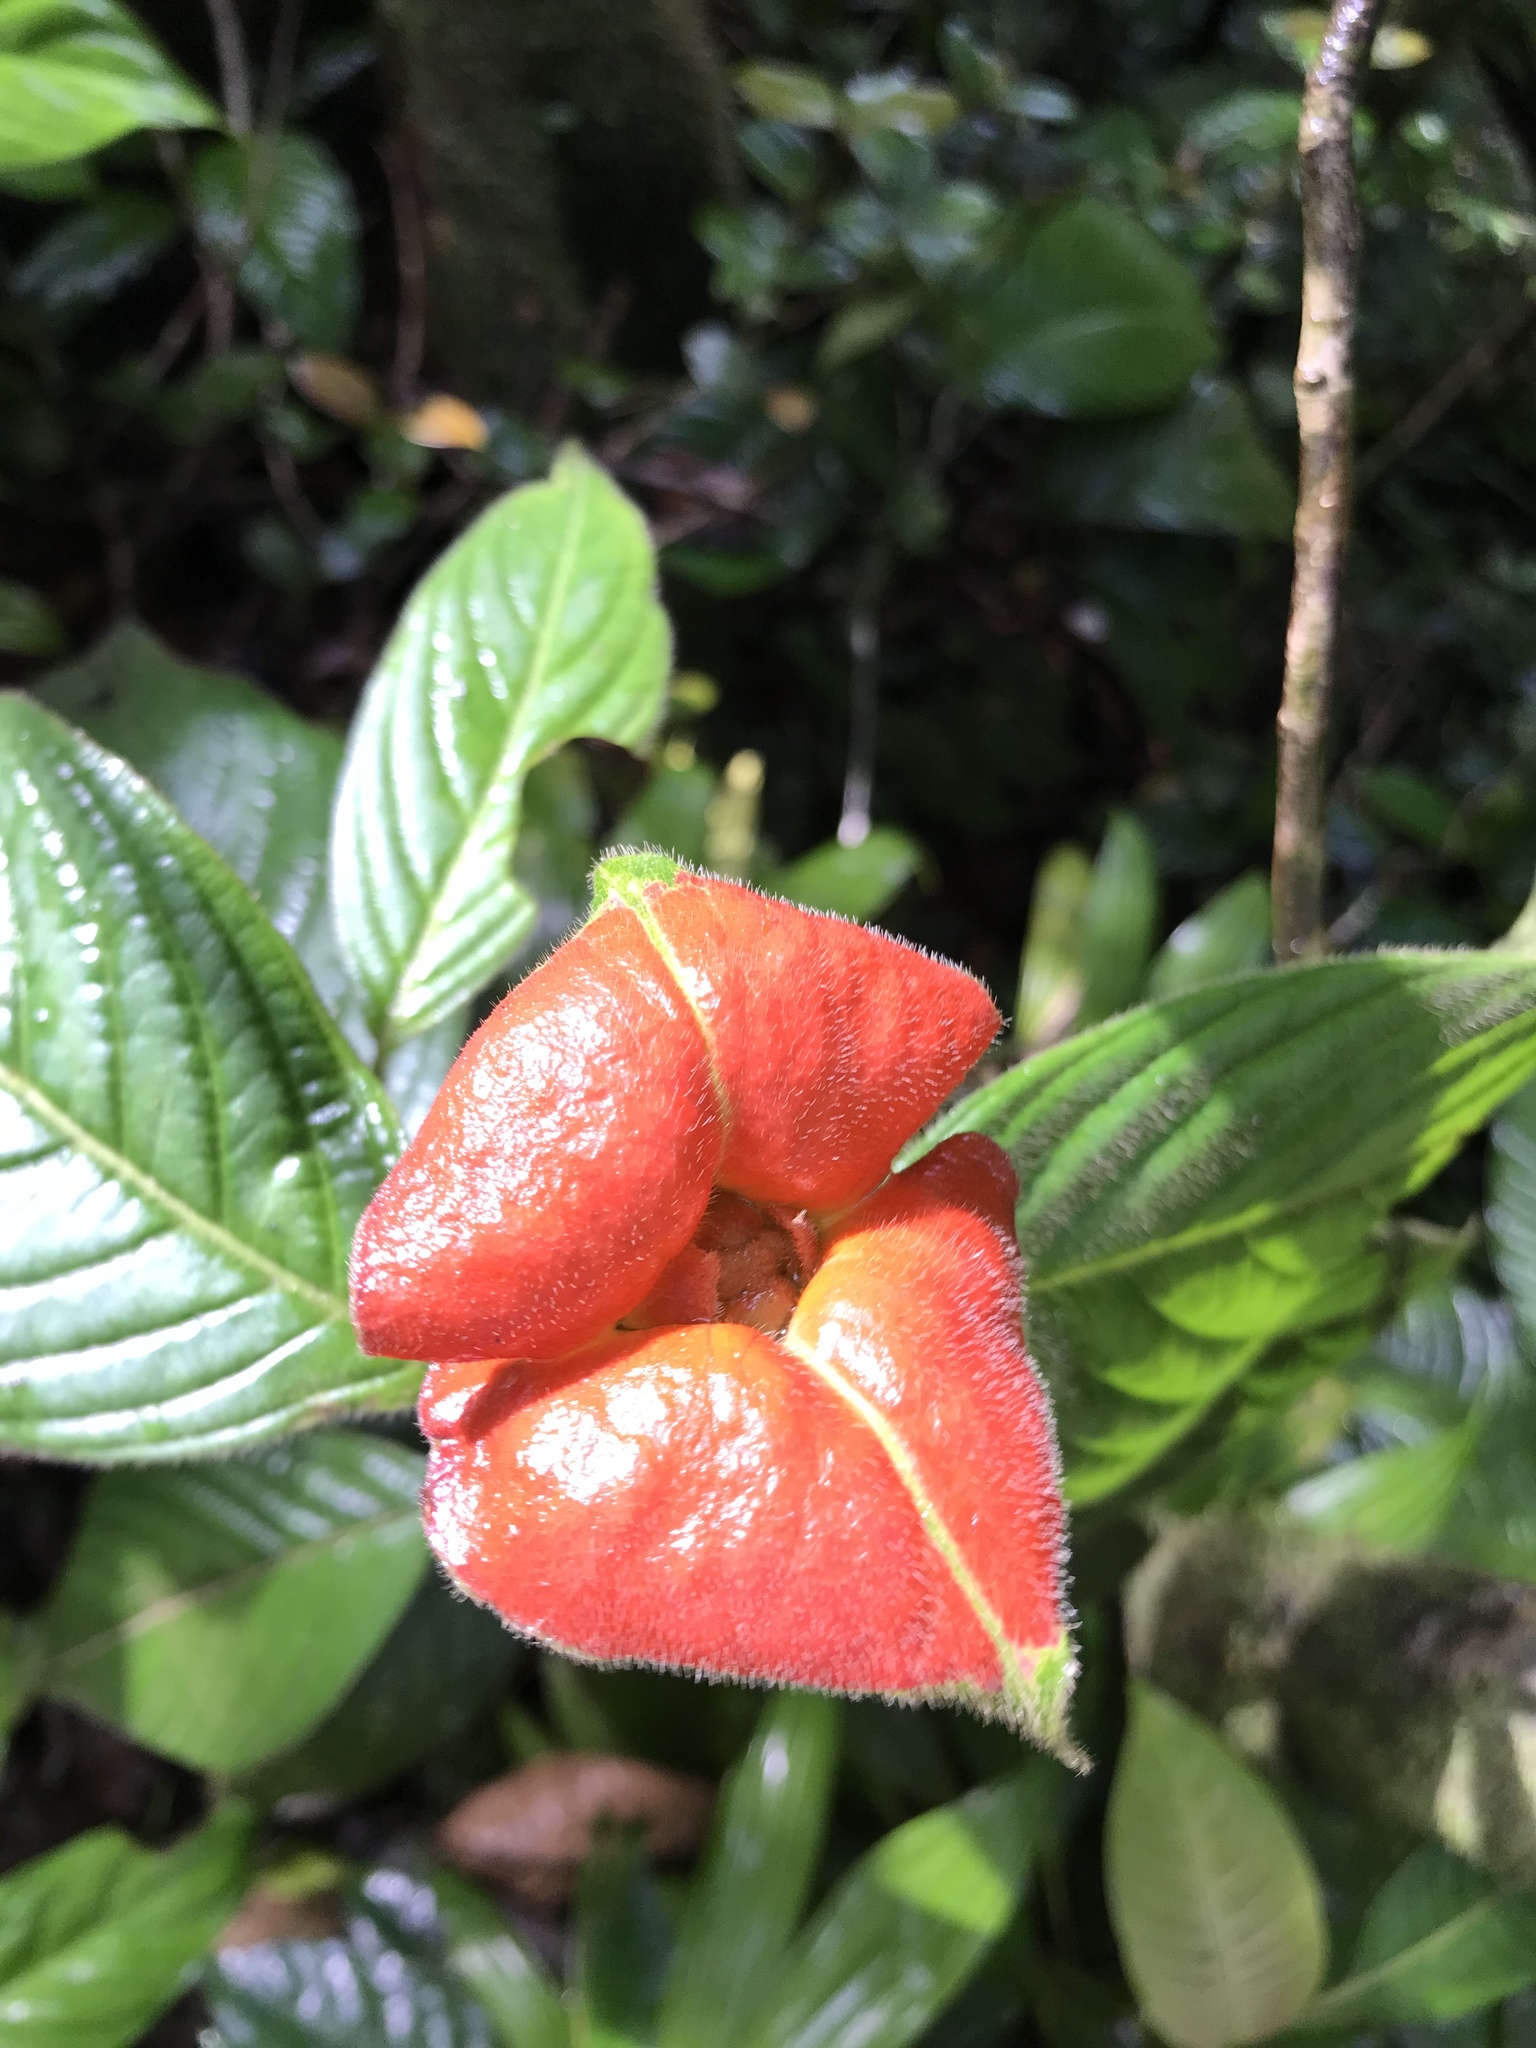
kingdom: Plantae
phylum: Tracheophyta
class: Magnoliopsida
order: Gentianales
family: Rubiaceae
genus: Palicourea
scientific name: Palicourea tomentosa
